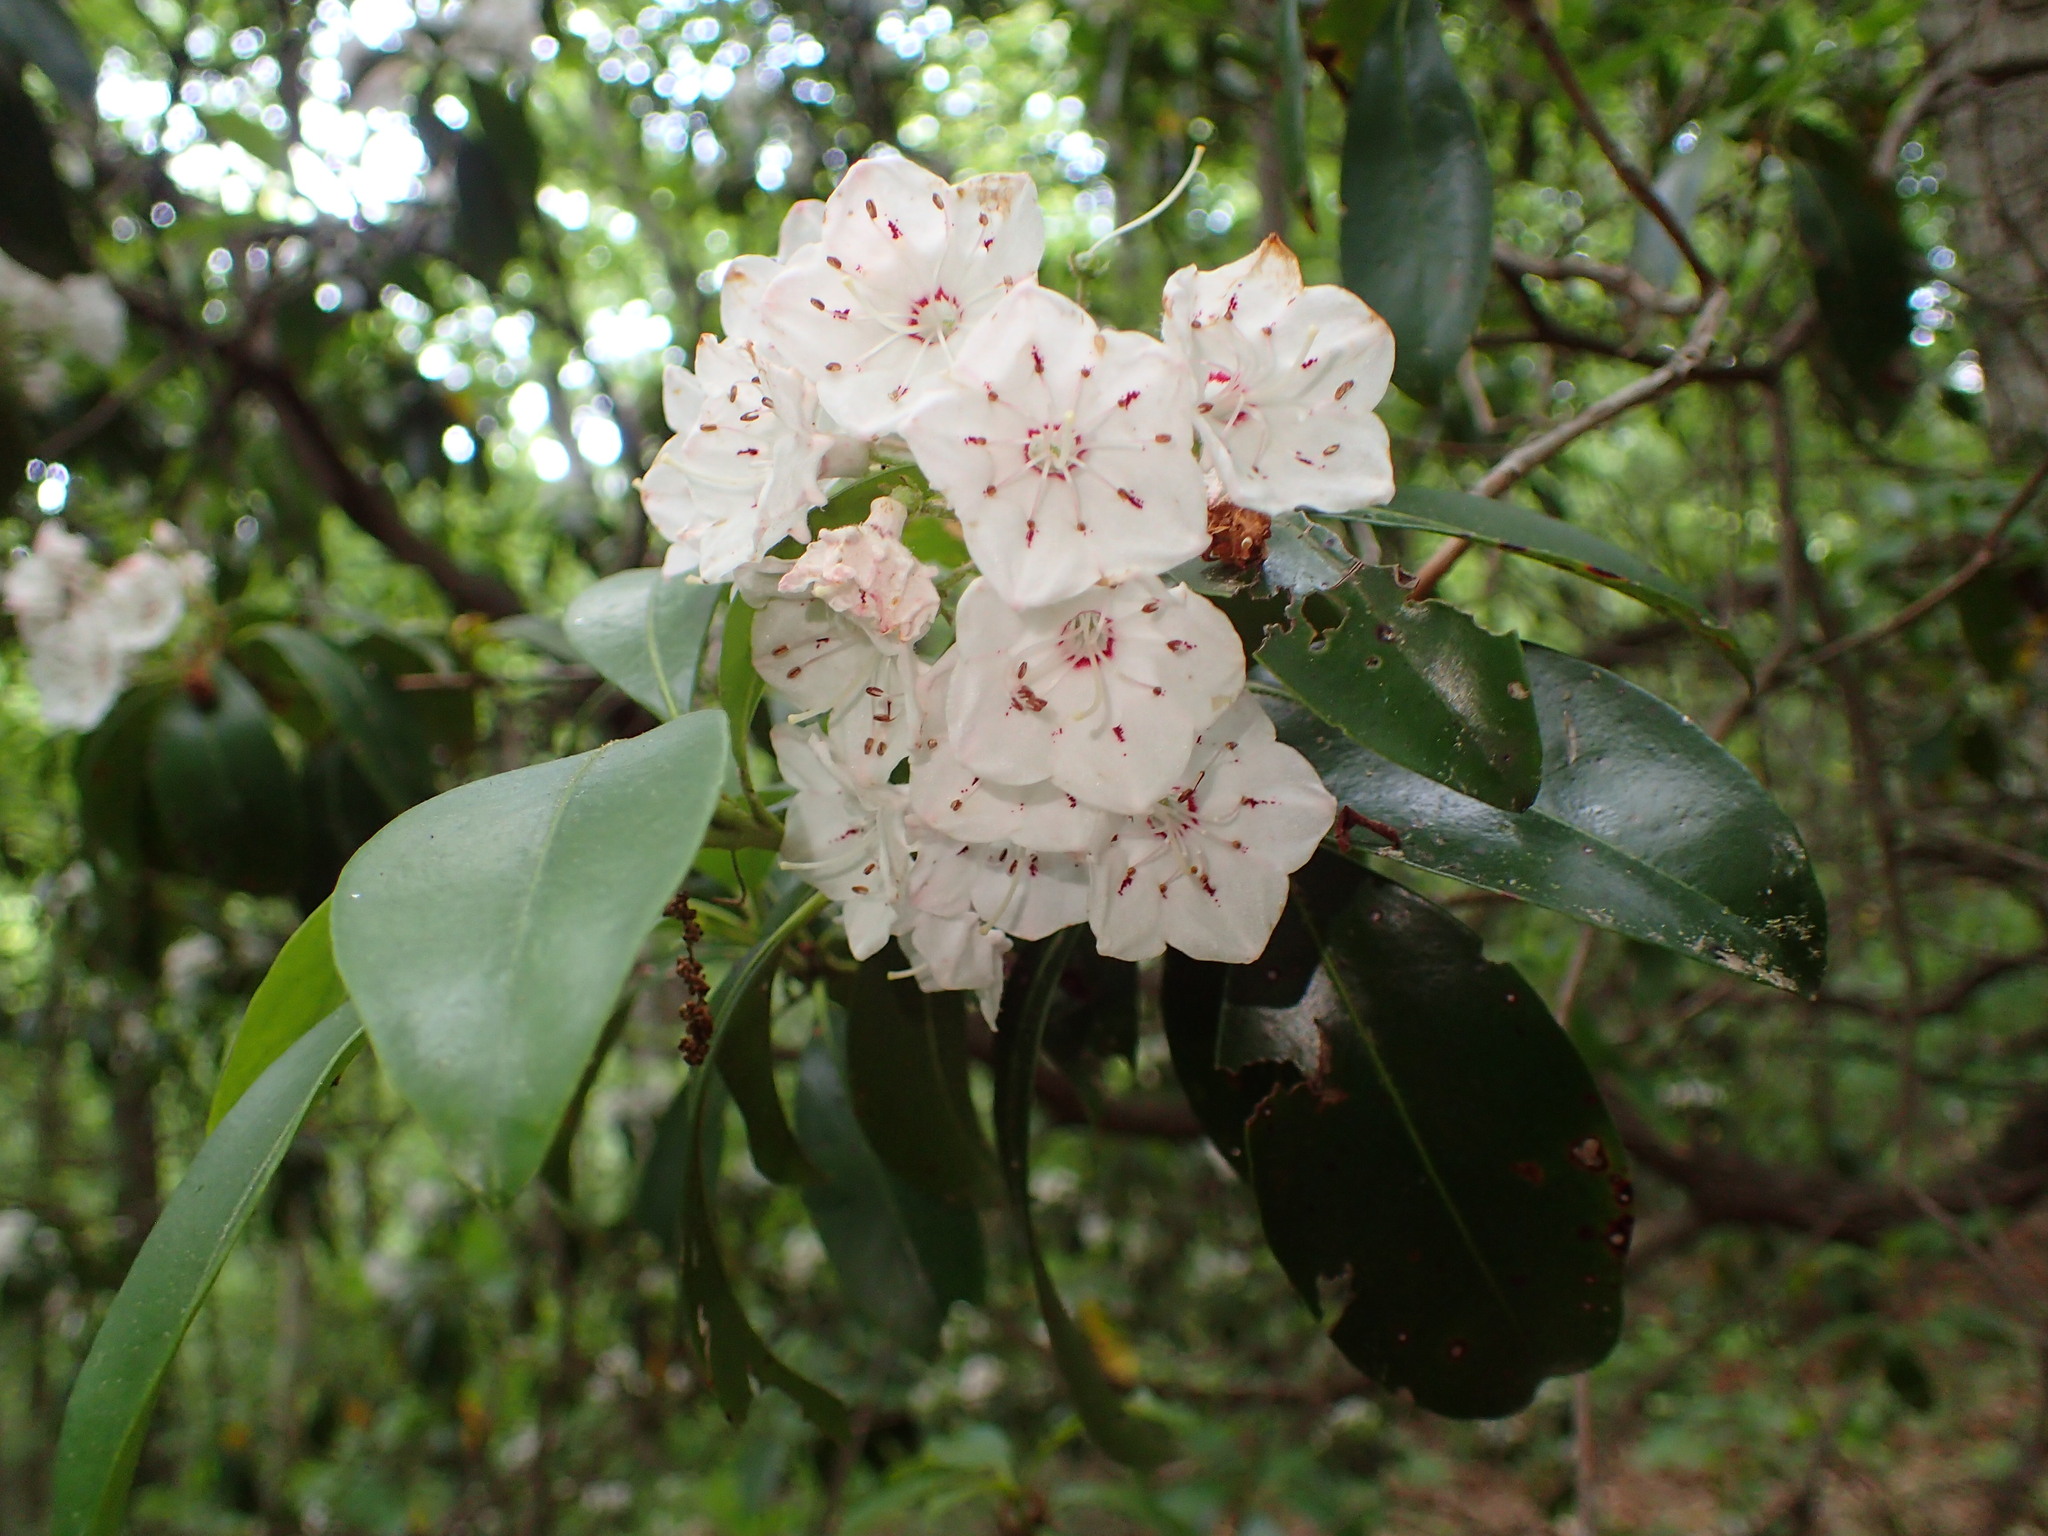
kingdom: Plantae
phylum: Tracheophyta
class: Magnoliopsida
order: Ericales
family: Ericaceae
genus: Kalmia
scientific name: Kalmia latifolia
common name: Mountain-laurel
